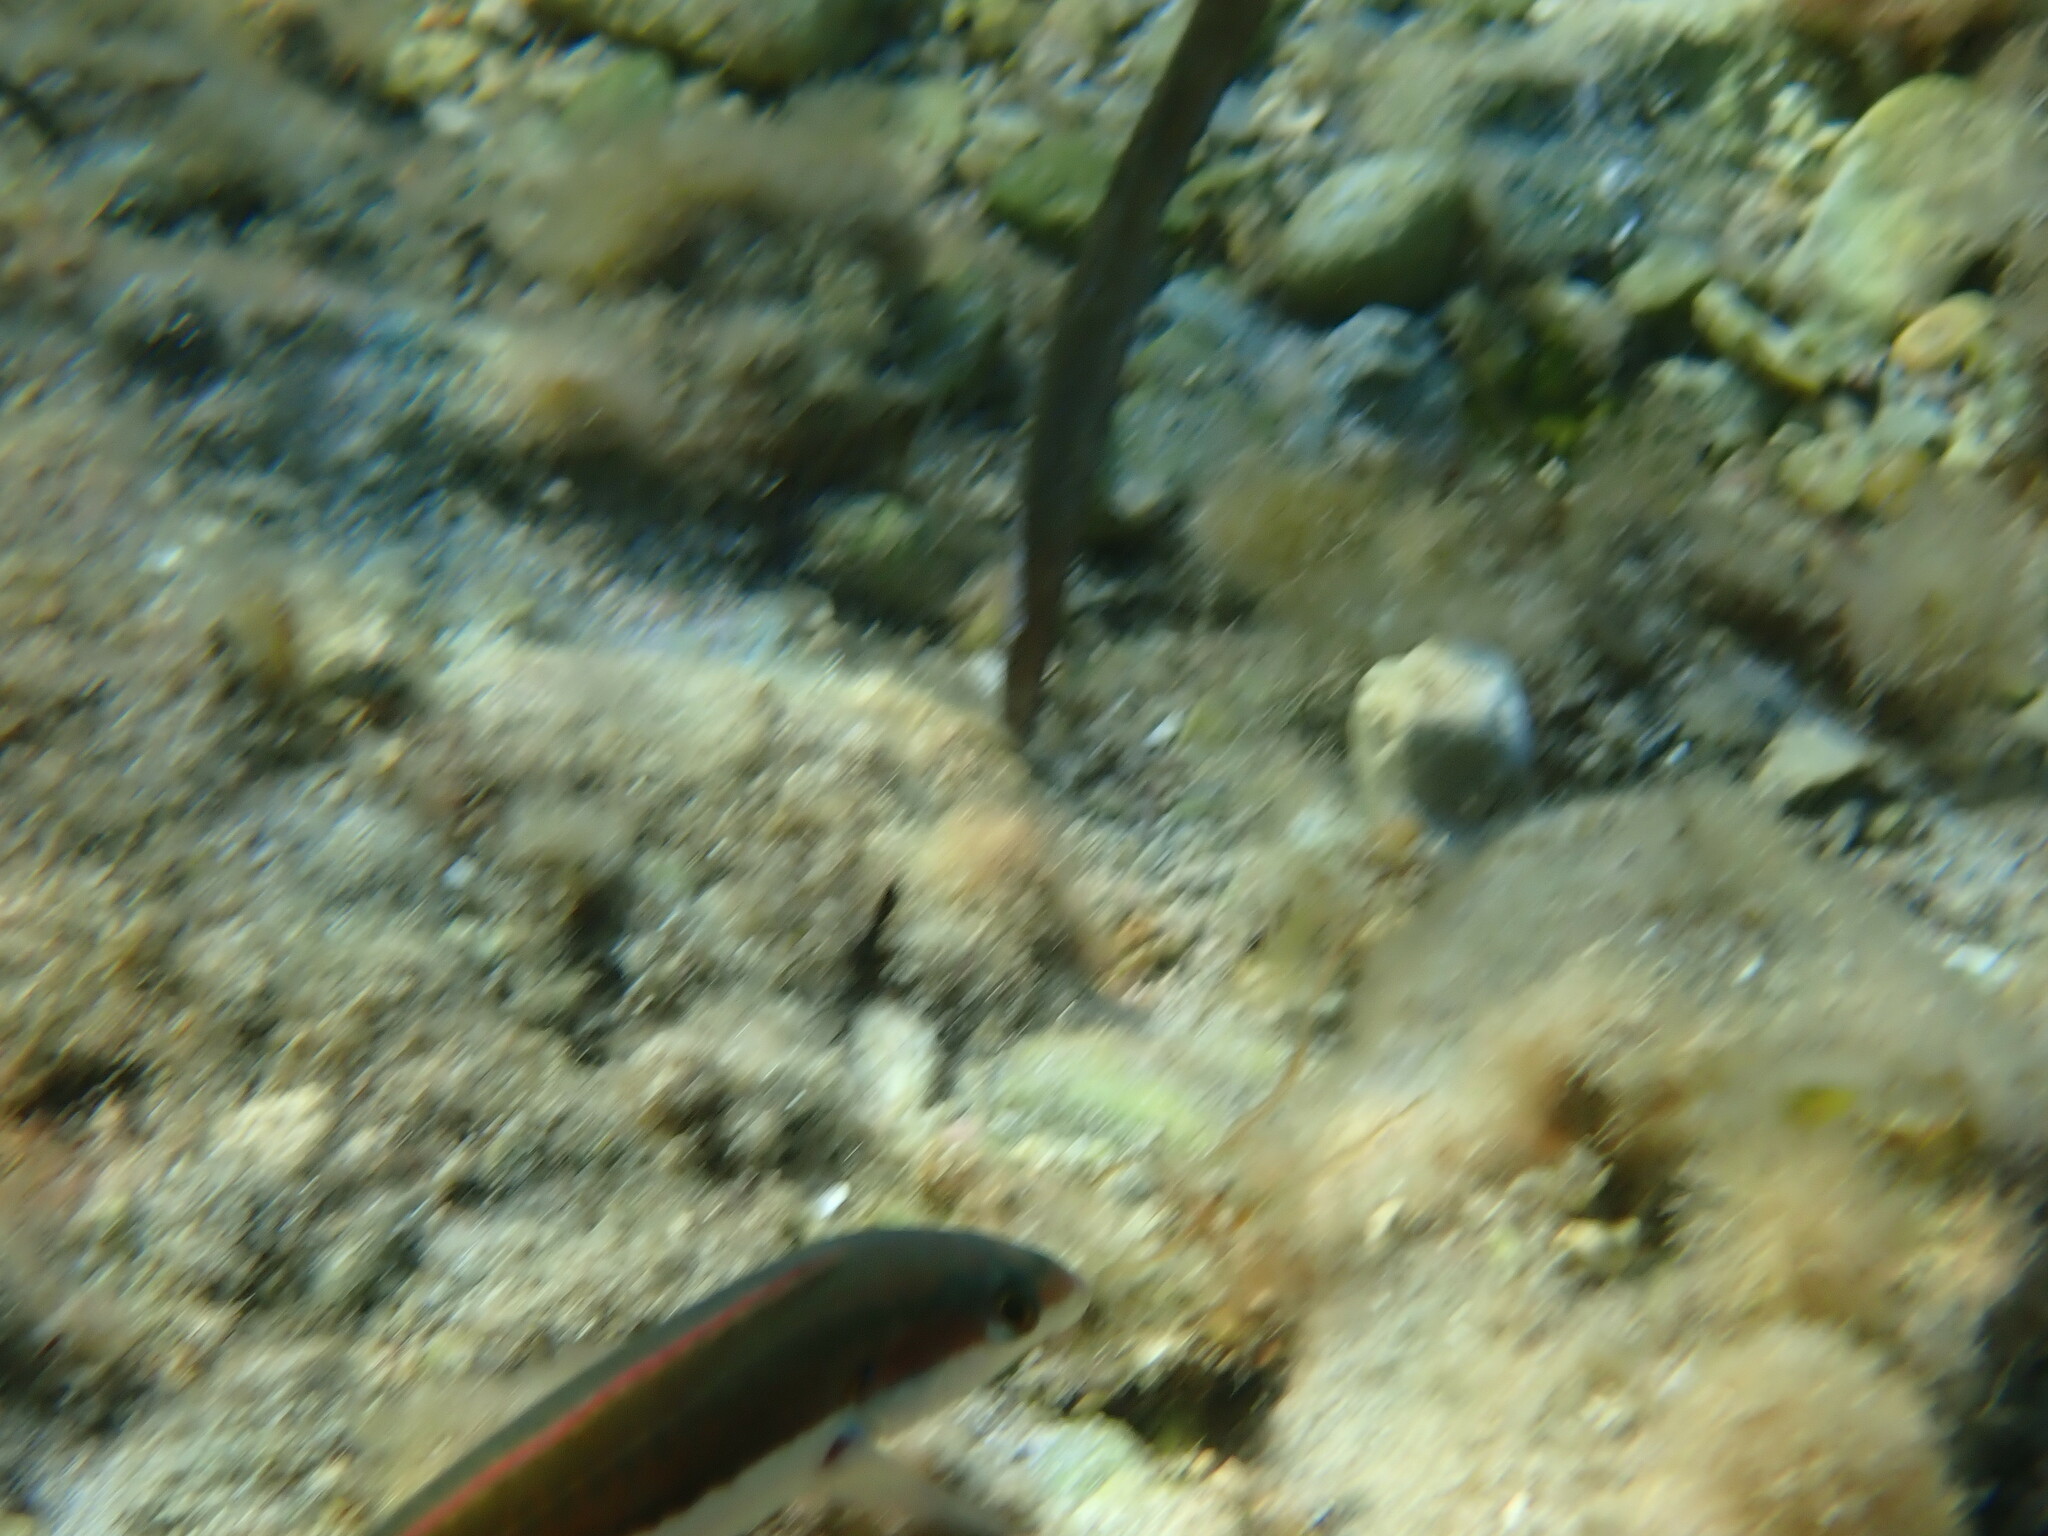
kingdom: Animalia
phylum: Chordata
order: Perciformes
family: Labridae
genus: Coris
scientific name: Coris julis
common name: Rainbow wrasse
